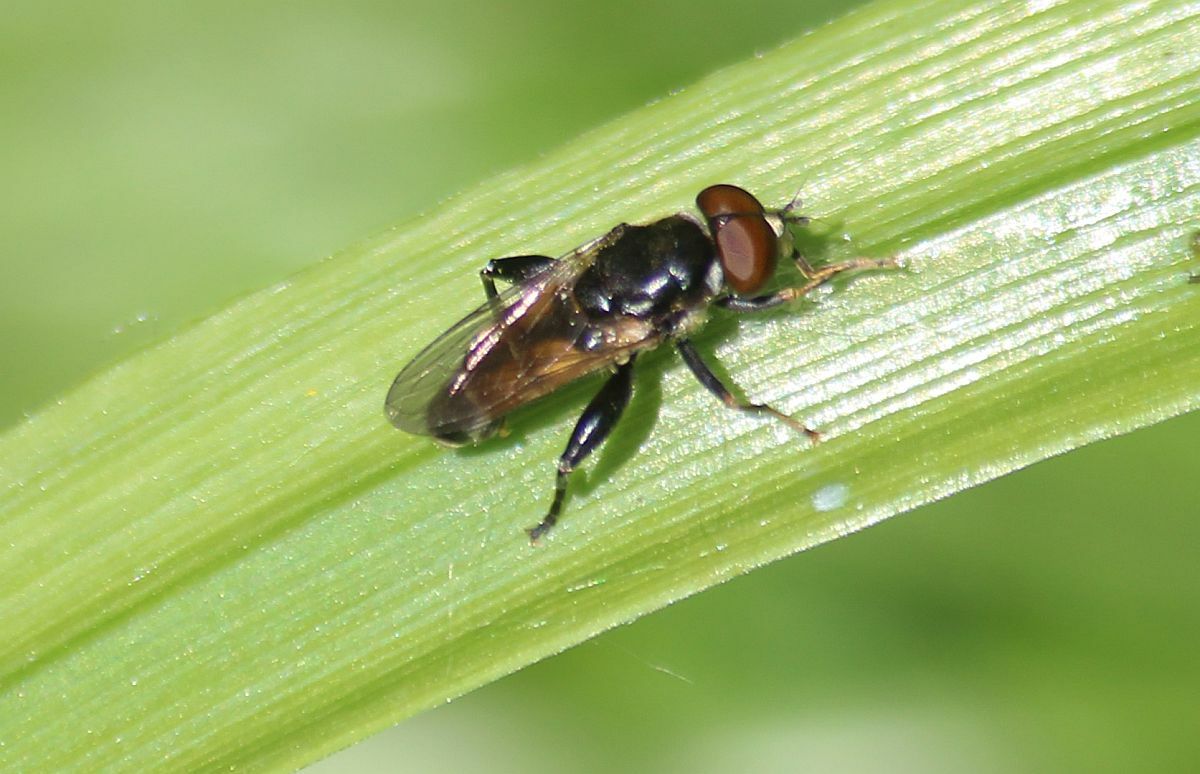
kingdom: Animalia
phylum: Arthropoda
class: Insecta
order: Diptera
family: Syrphidae
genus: Tropidia
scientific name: Tropidia scita
